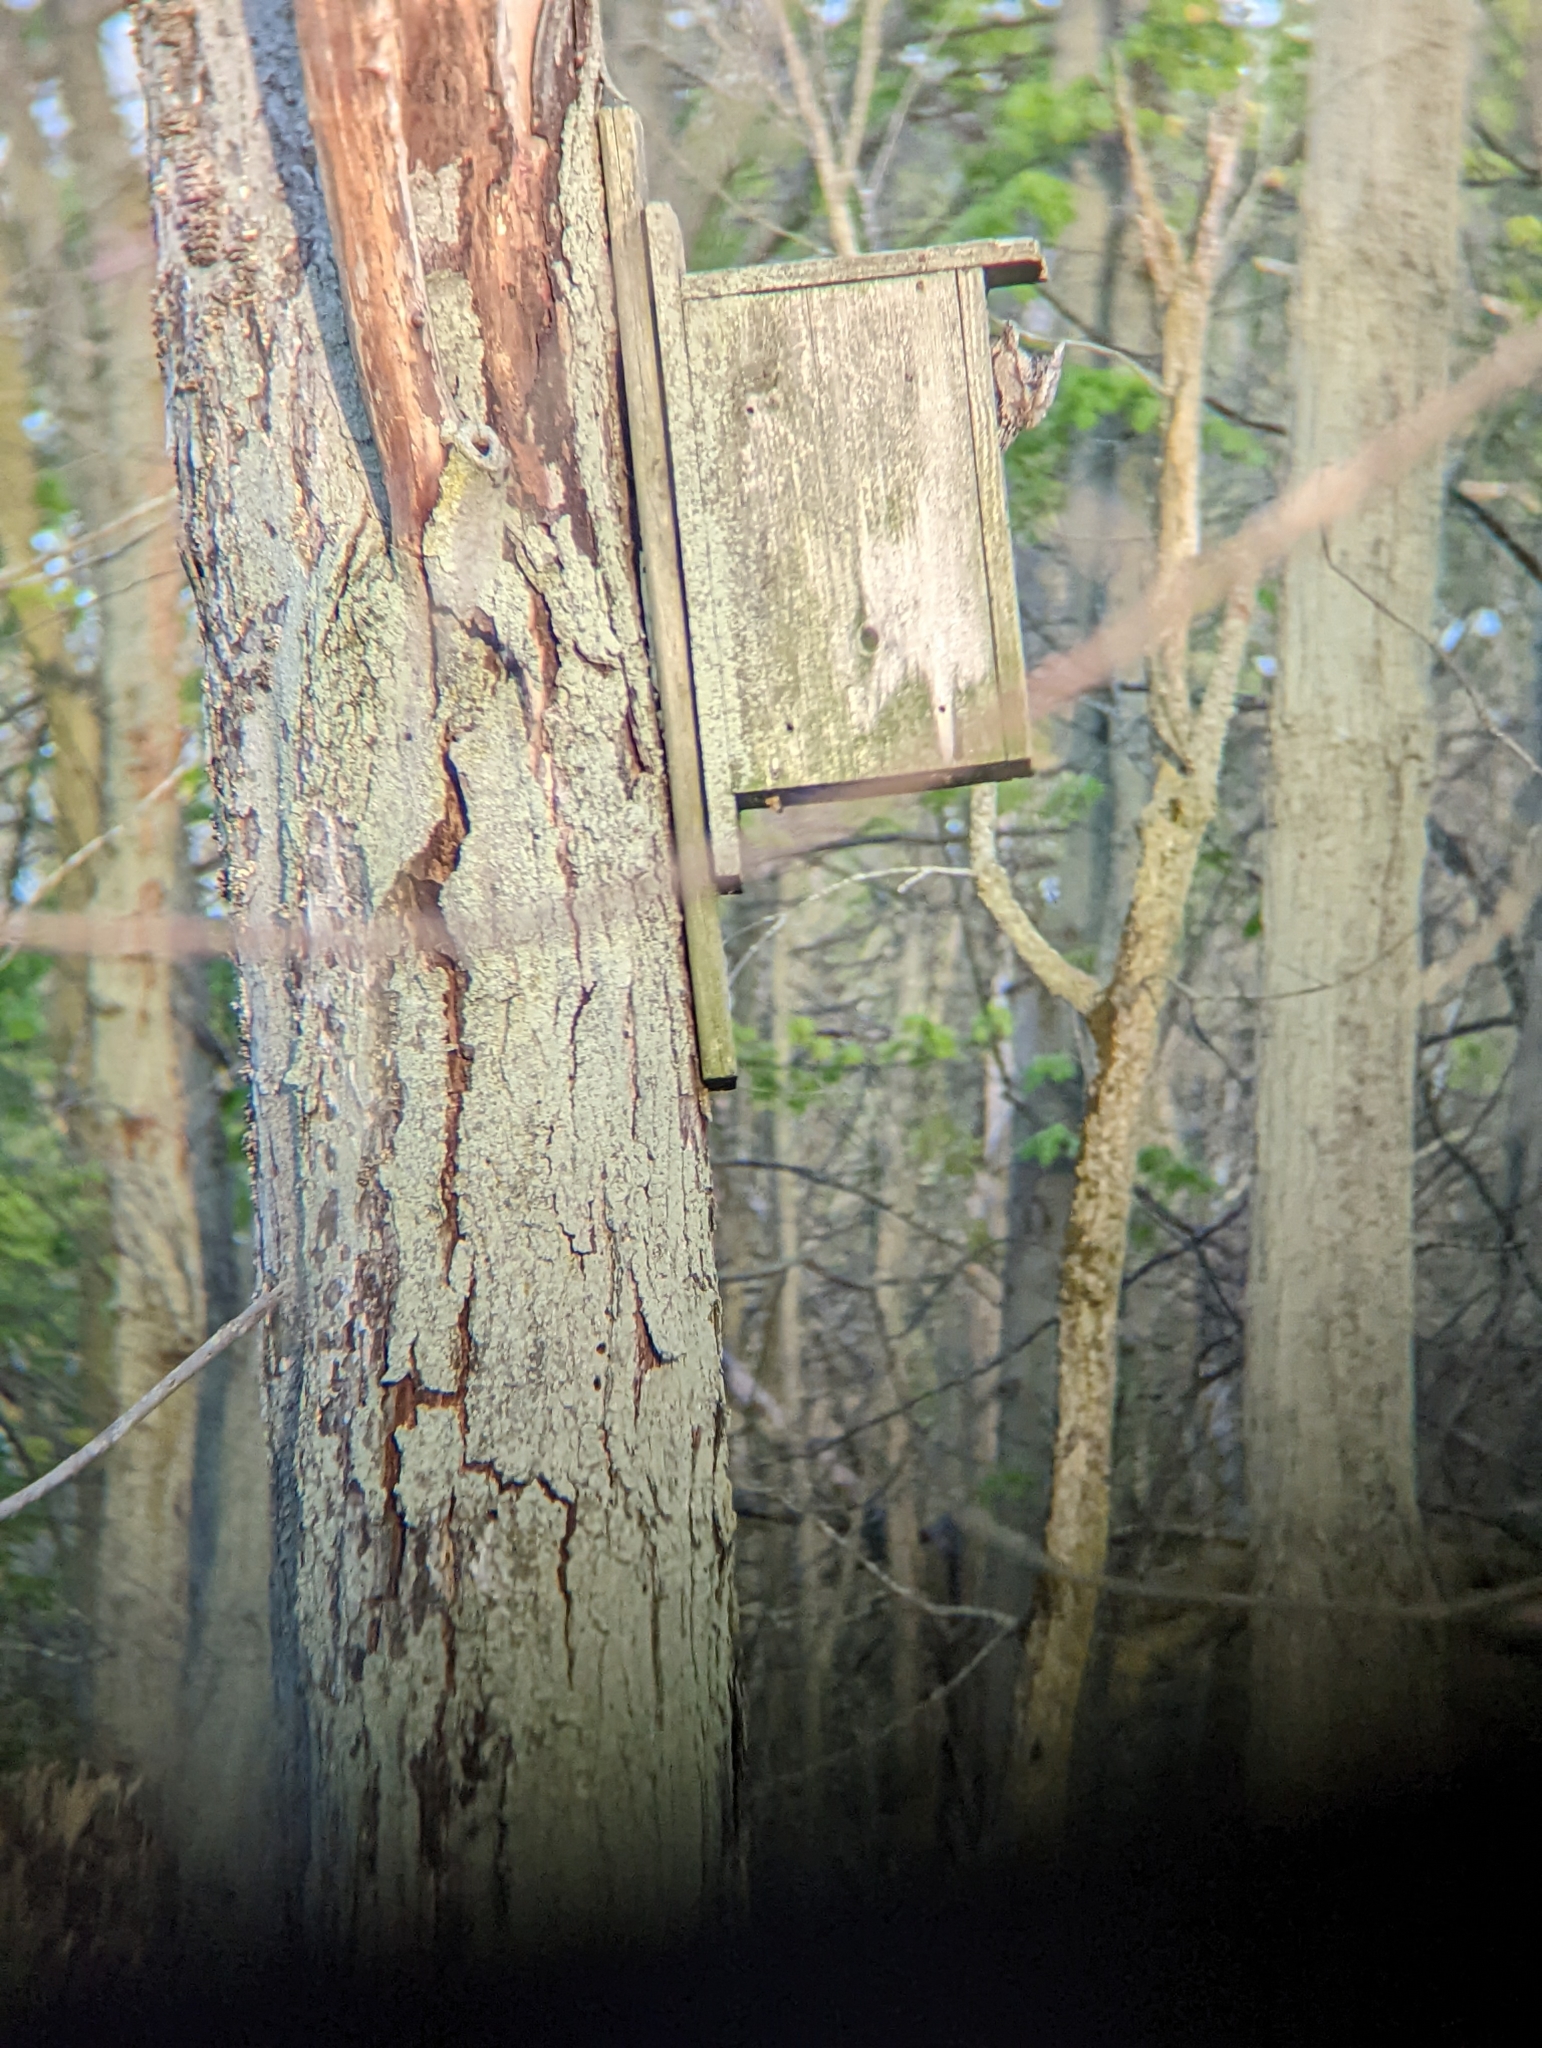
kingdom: Animalia
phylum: Chordata
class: Aves
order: Strigiformes
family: Strigidae
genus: Megascops
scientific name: Megascops asio
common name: Eastern screech-owl
